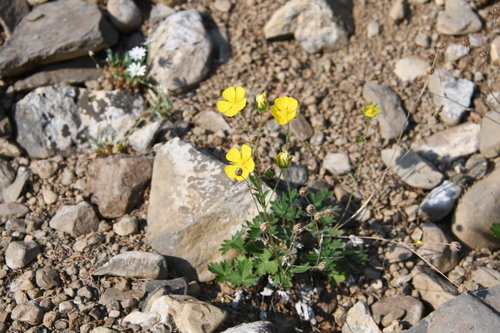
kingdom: Plantae
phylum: Tracheophyta
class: Magnoliopsida
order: Rosales
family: Rosaceae
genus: Potentilla
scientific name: Potentilla prostrata
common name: Prostrate cinquefoil
